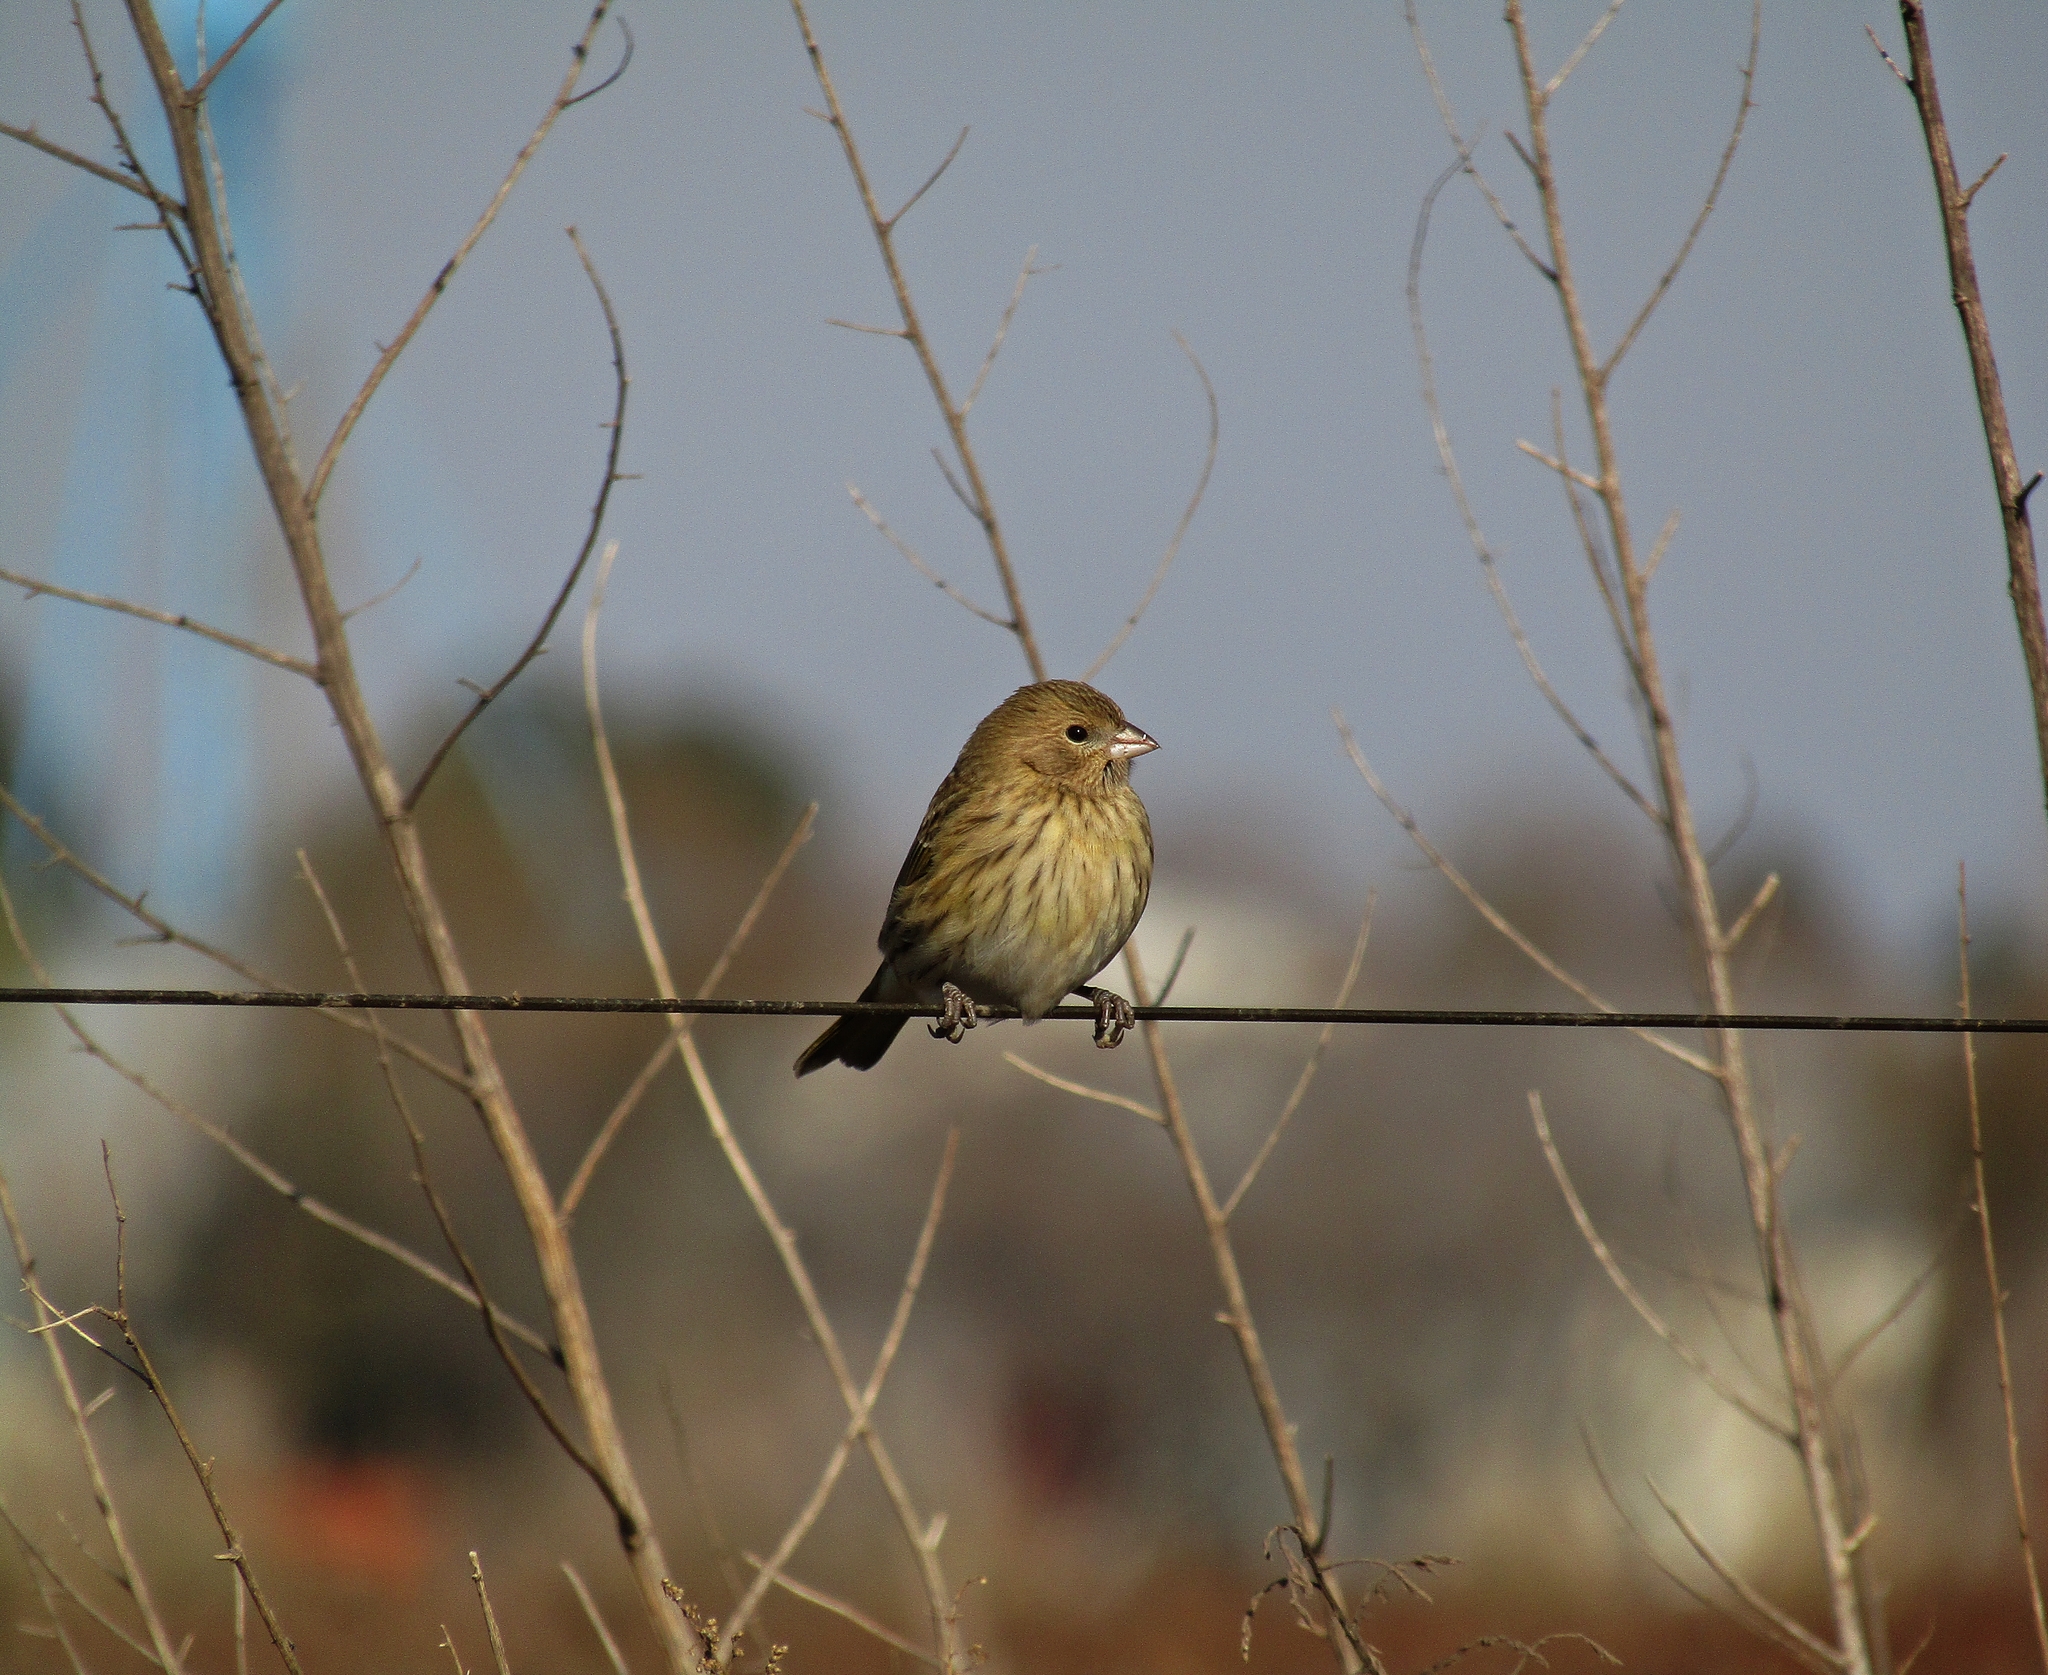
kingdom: Animalia
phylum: Chordata
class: Aves
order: Passeriformes
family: Thraupidae
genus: Sicalis
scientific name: Sicalis flaveola
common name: Saffron finch
